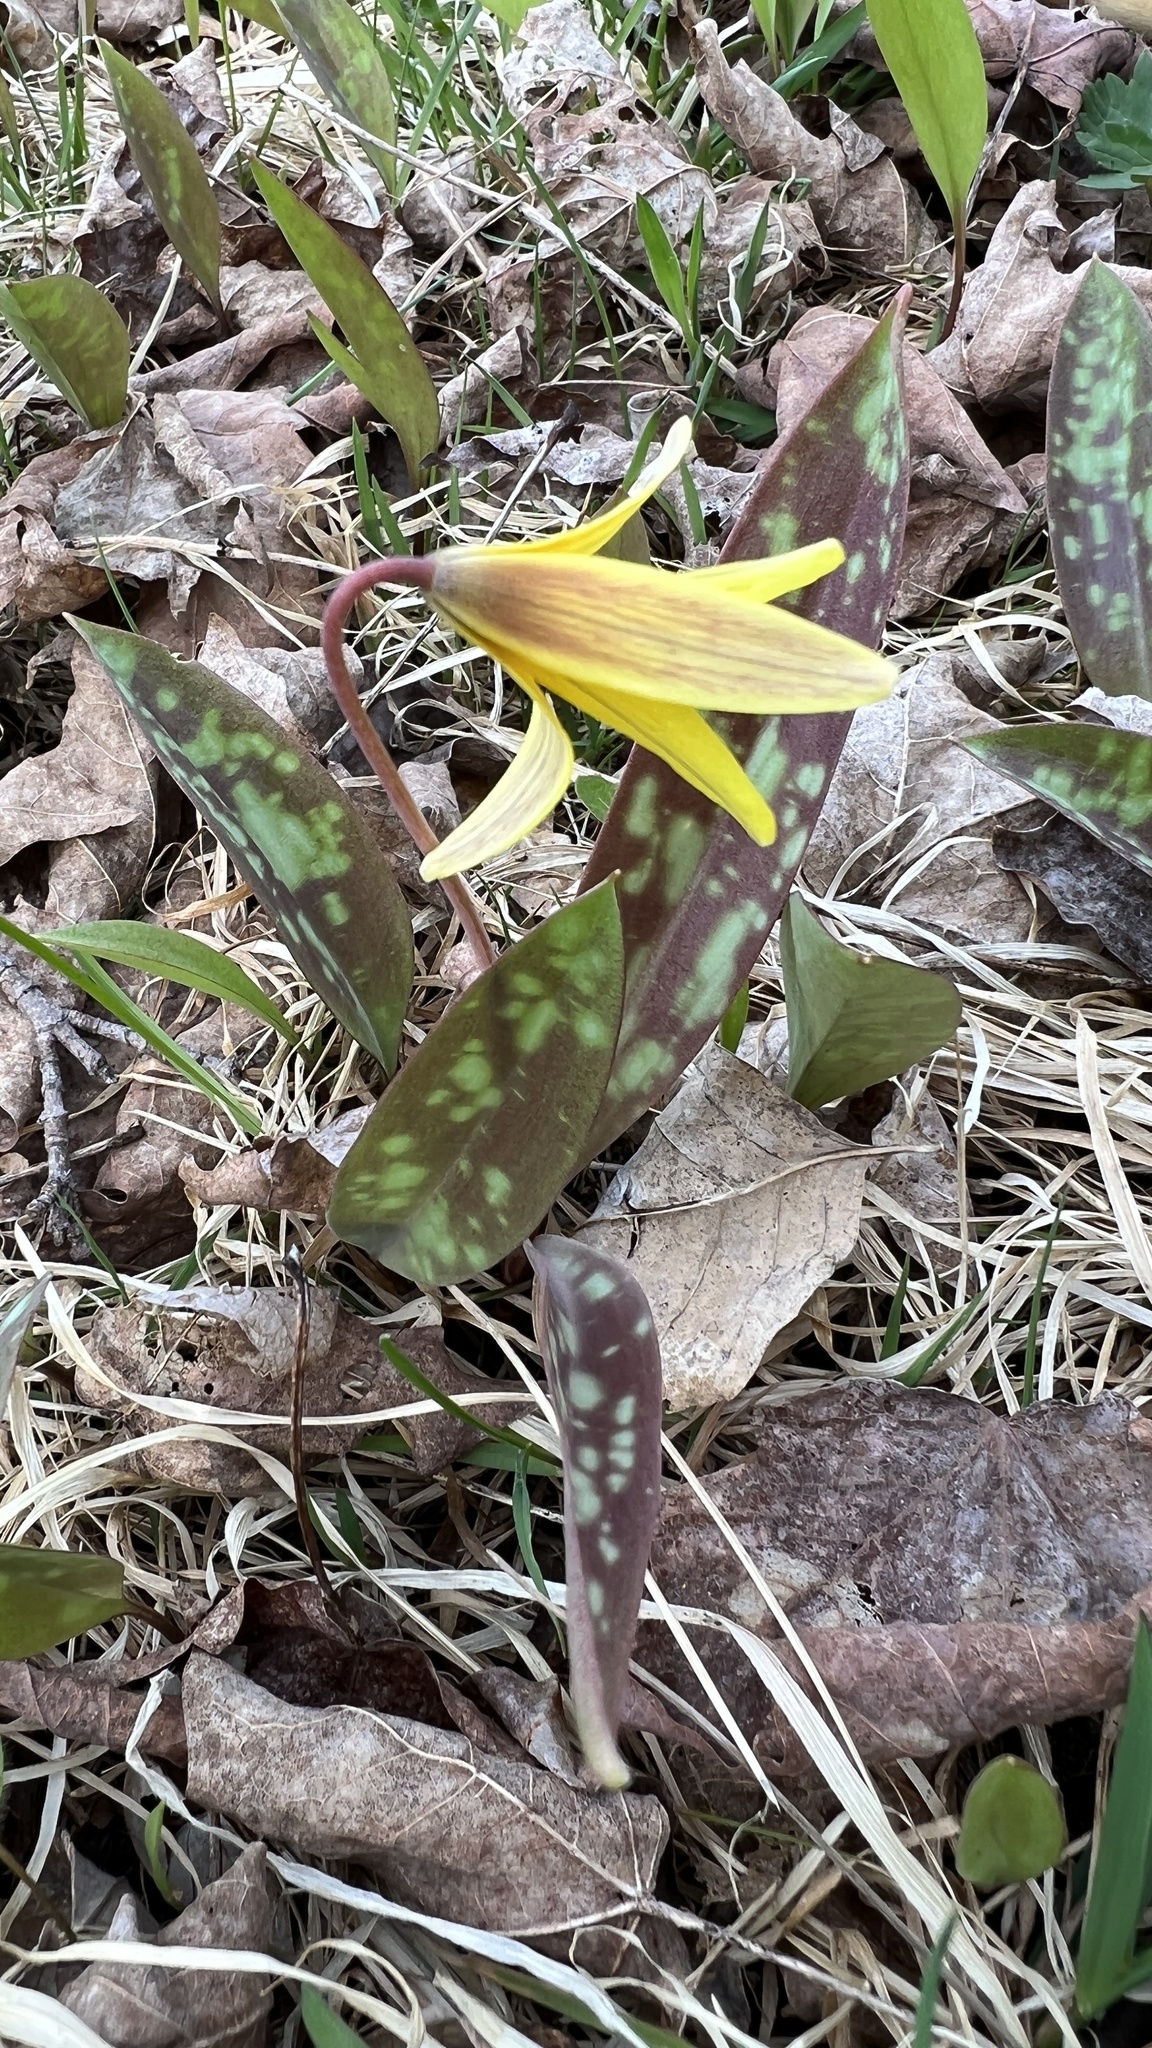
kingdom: Plantae
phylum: Tracheophyta
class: Liliopsida
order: Liliales
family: Liliaceae
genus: Erythronium
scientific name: Erythronium americanum
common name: Yellow adder's-tongue
